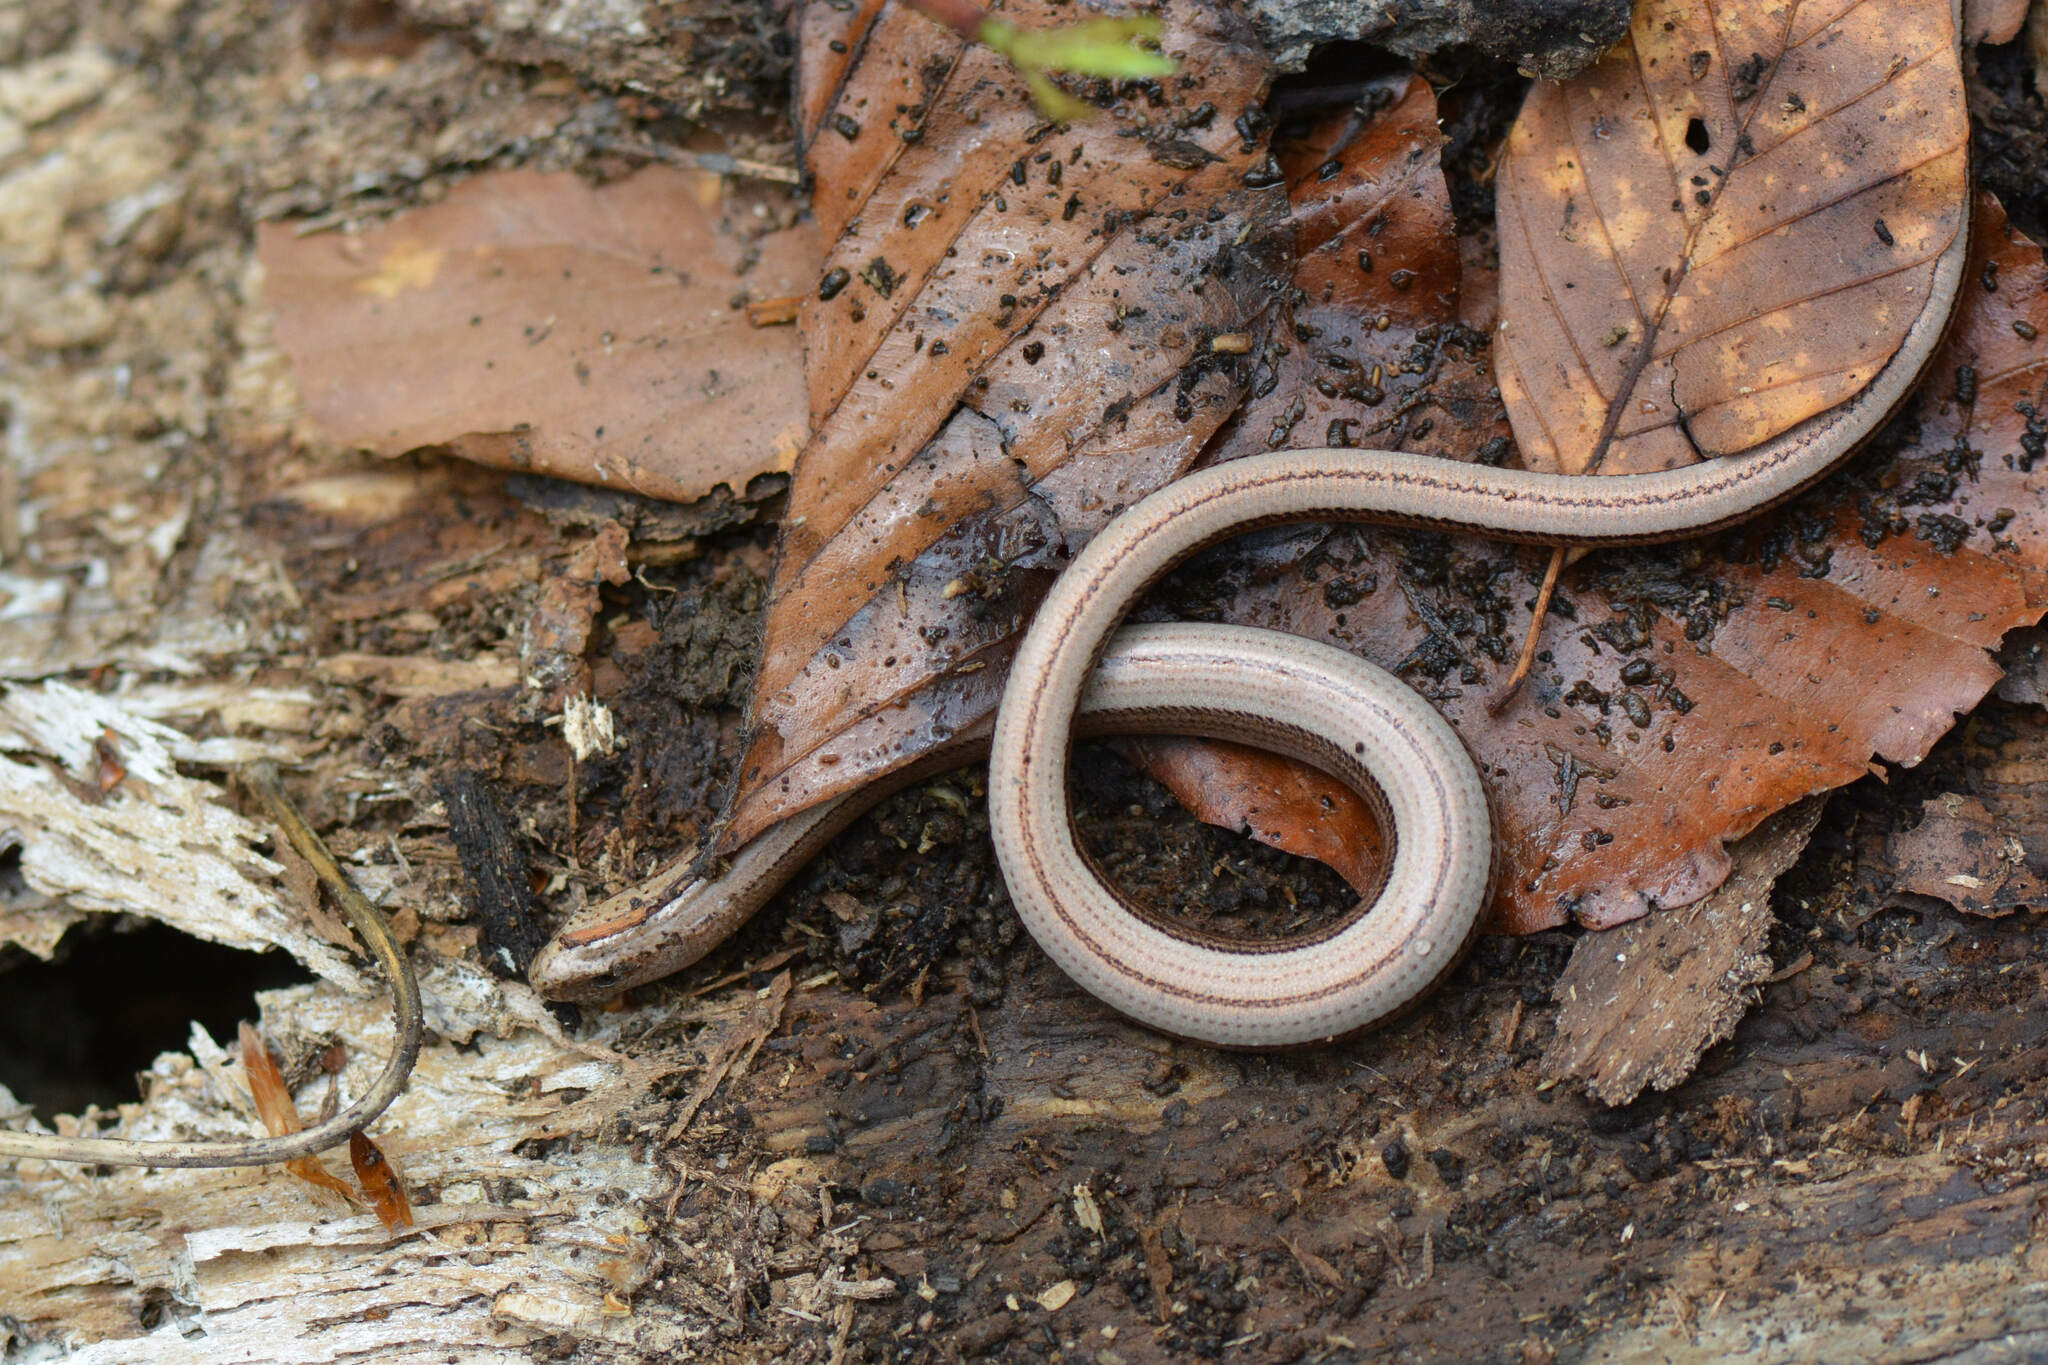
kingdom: Animalia
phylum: Chordata
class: Squamata
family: Anguidae
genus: Anguis
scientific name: Anguis fragilis
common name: Slow worm
